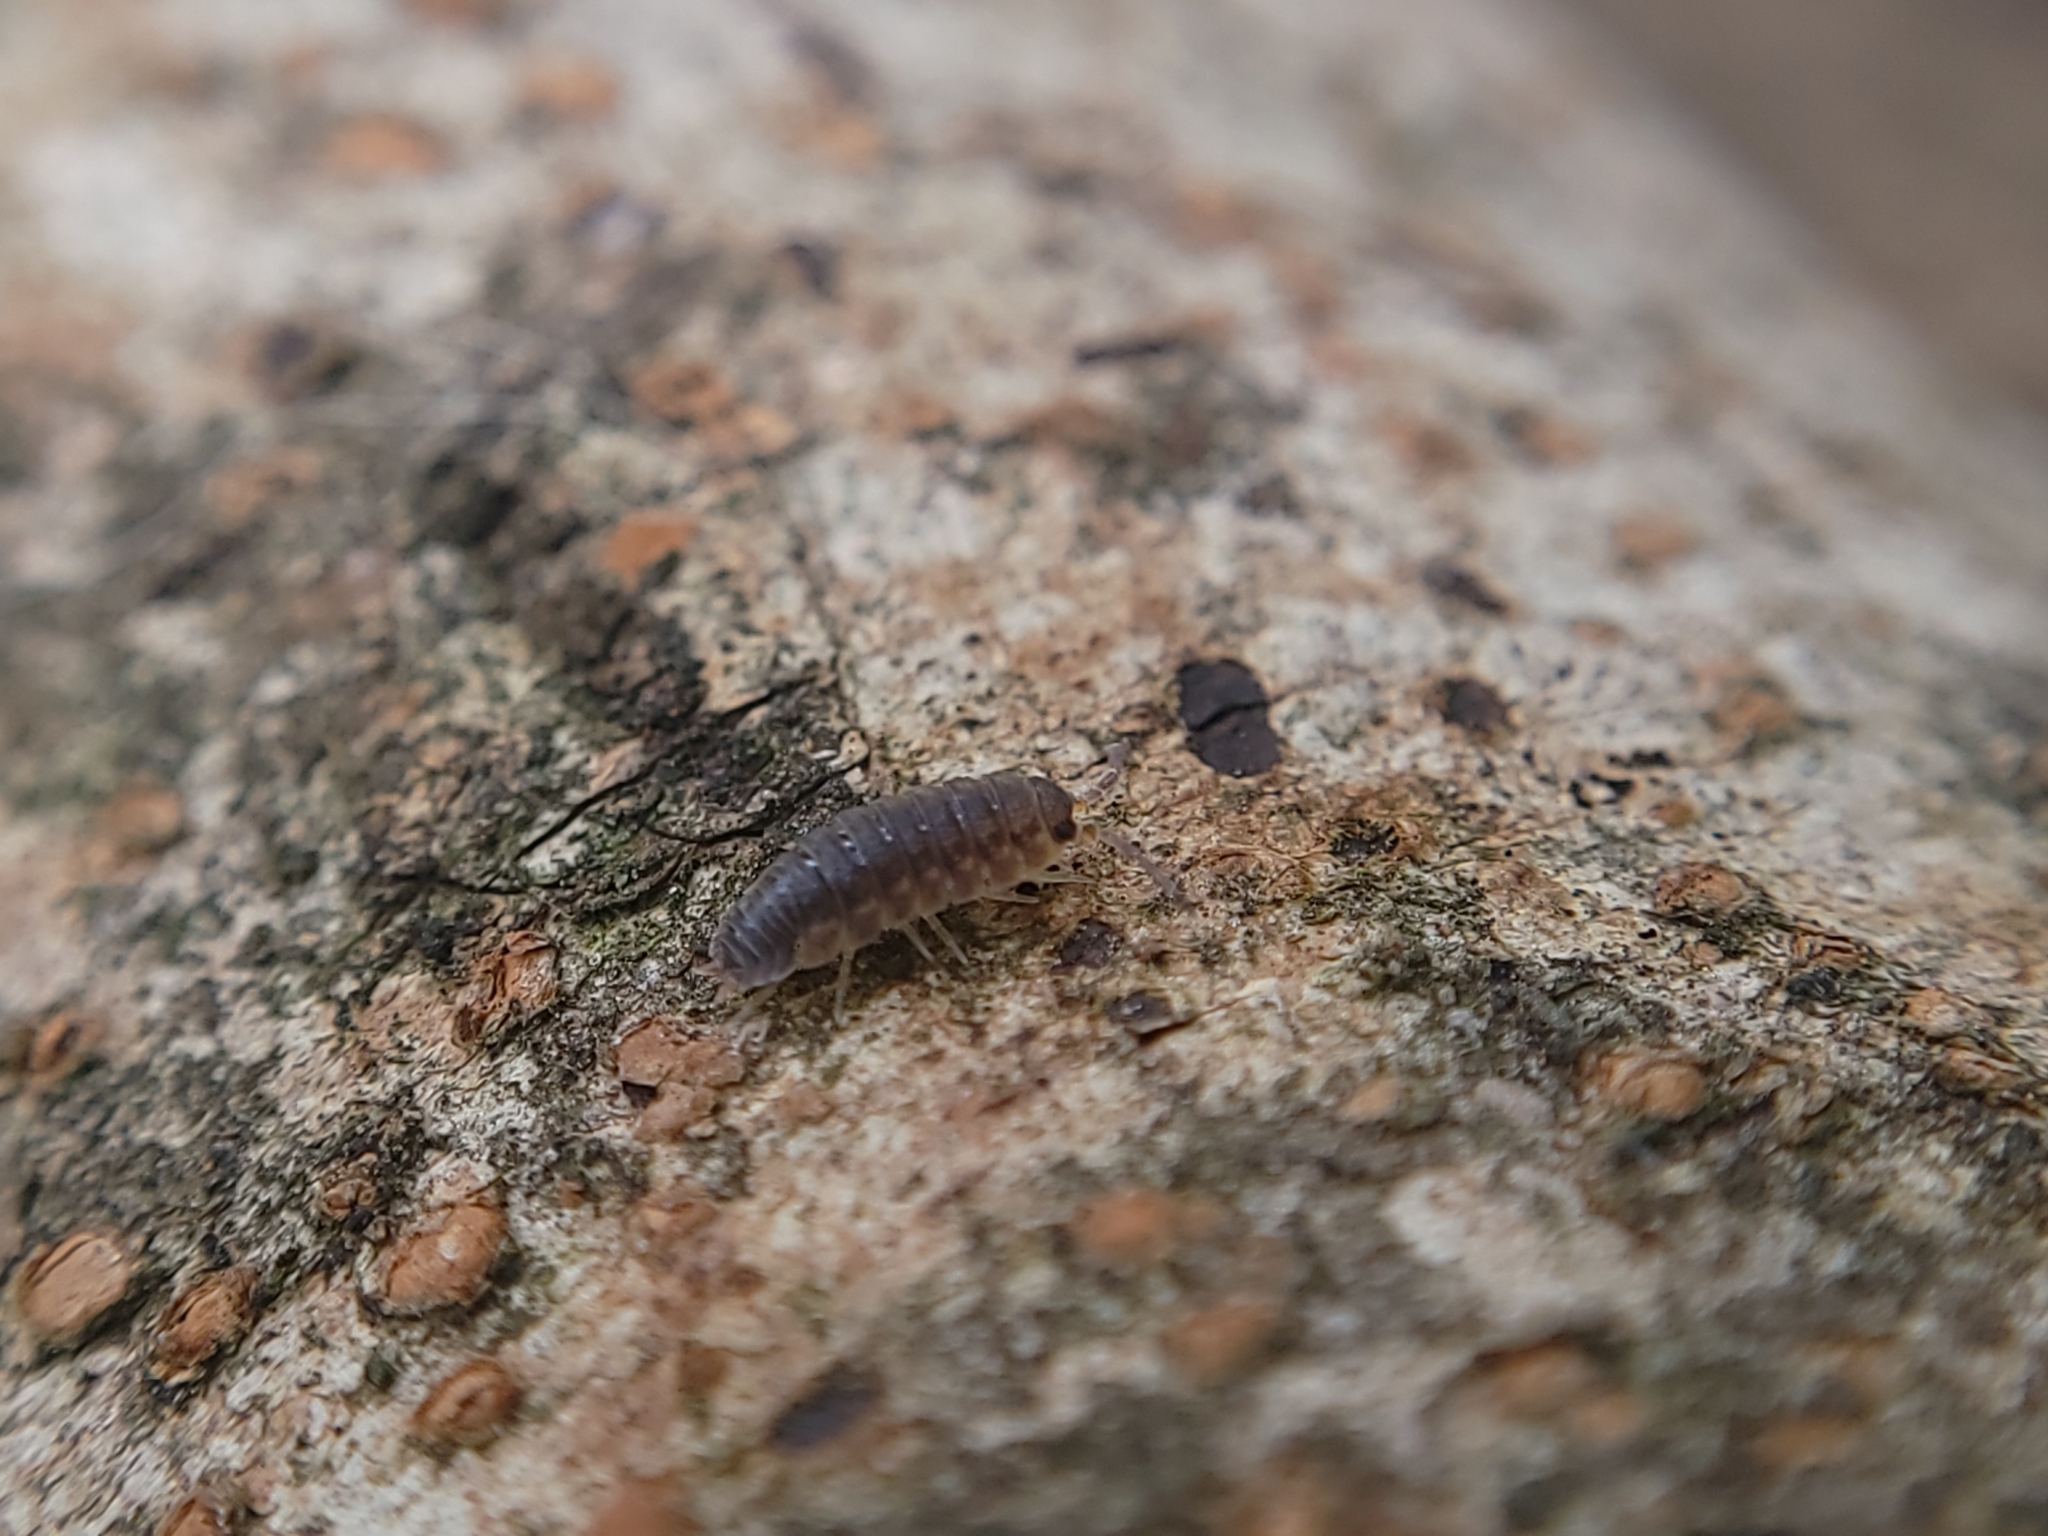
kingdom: Animalia
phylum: Arthropoda
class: Malacostraca
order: Isopoda
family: Porcellionidae
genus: Porcellio
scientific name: Porcellio scaber
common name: Common rough woodlouse
